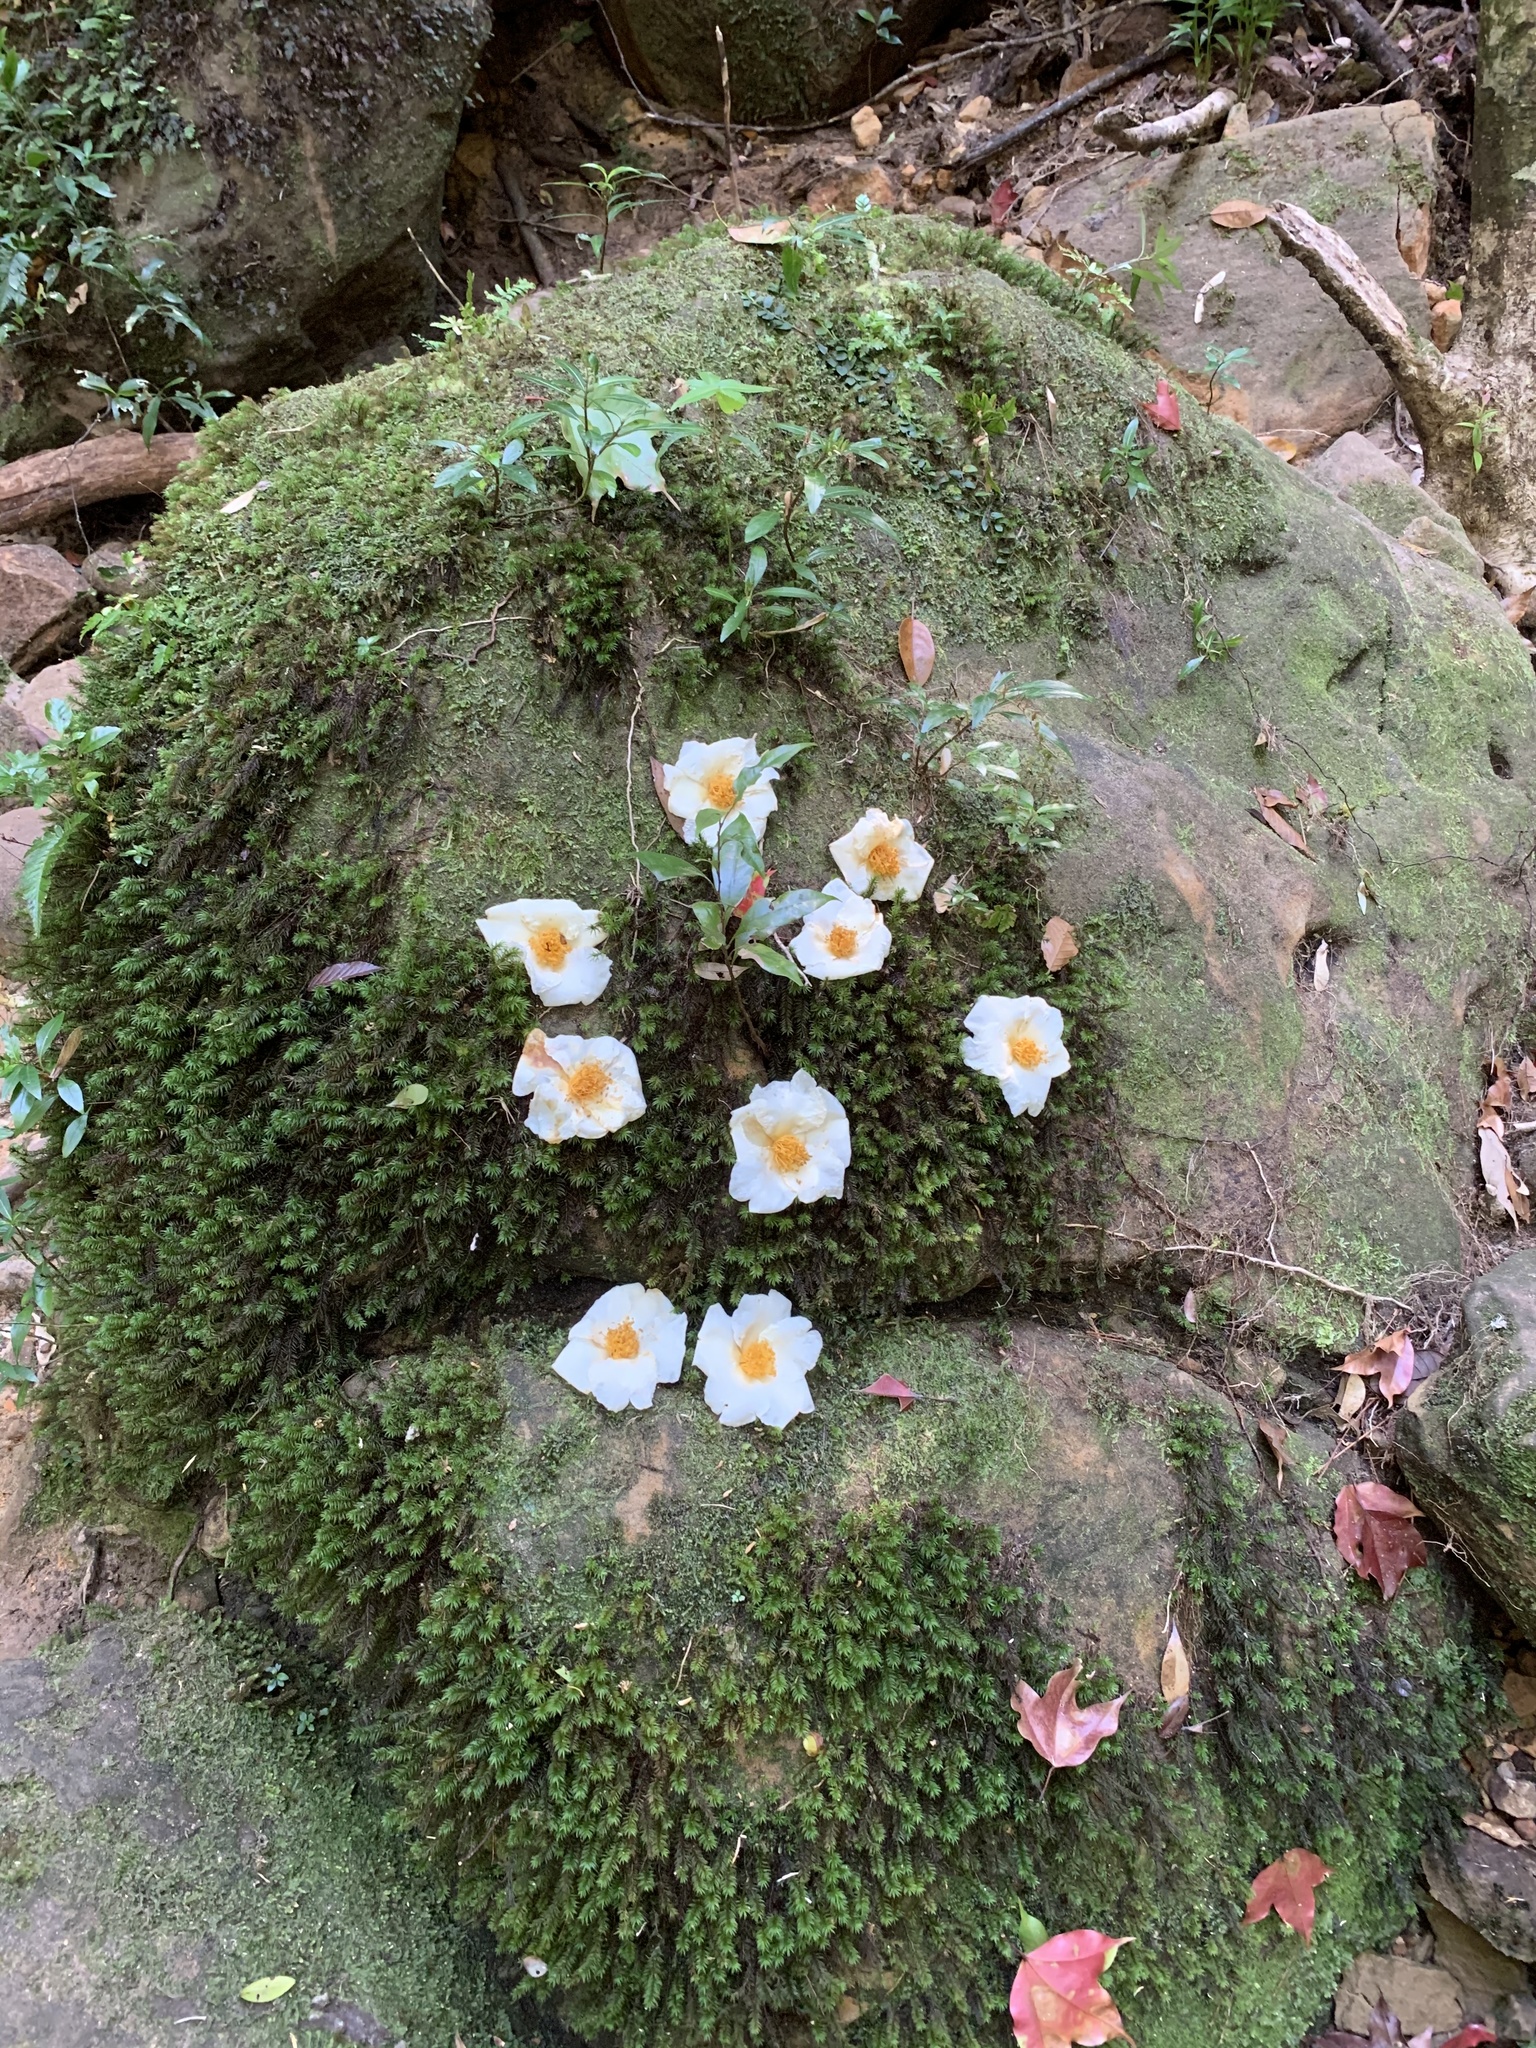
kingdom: Plantae
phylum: Tracheophyta
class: Magnoliopsida
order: Ericales
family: Theaceae
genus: Polyspora
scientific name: Polyspora axillaris
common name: Fried egg tree
